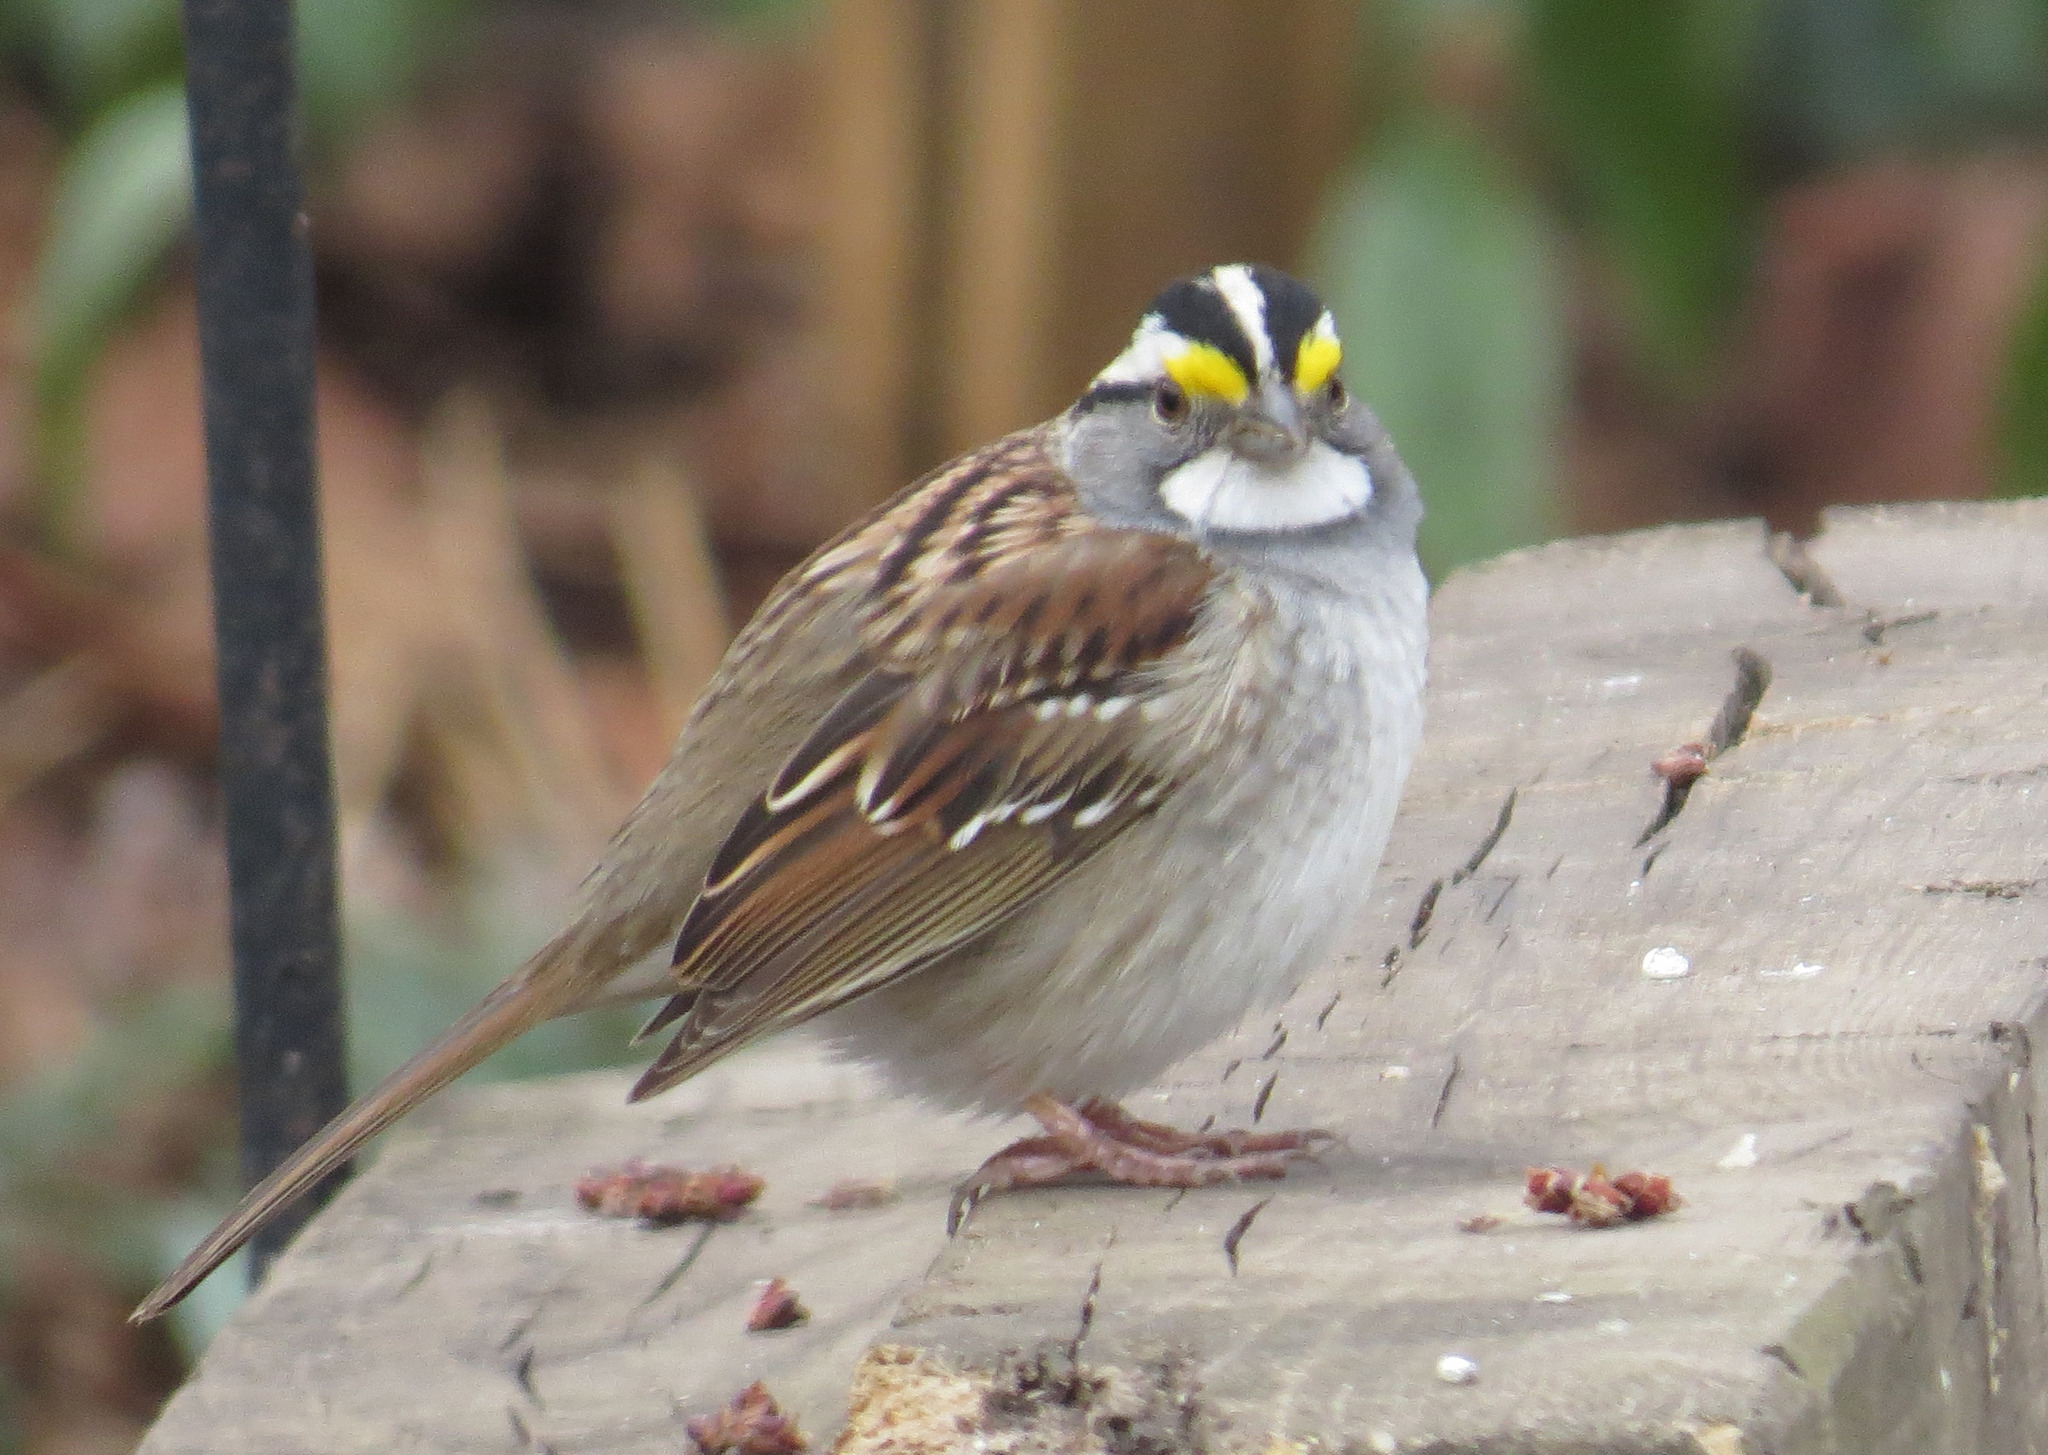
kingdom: Animalia
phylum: Chordata
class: Aves
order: Passeriformes
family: Passerellidae
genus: Zonotrichia
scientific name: Zonotrichia albicollis
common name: White-throated sparrow
